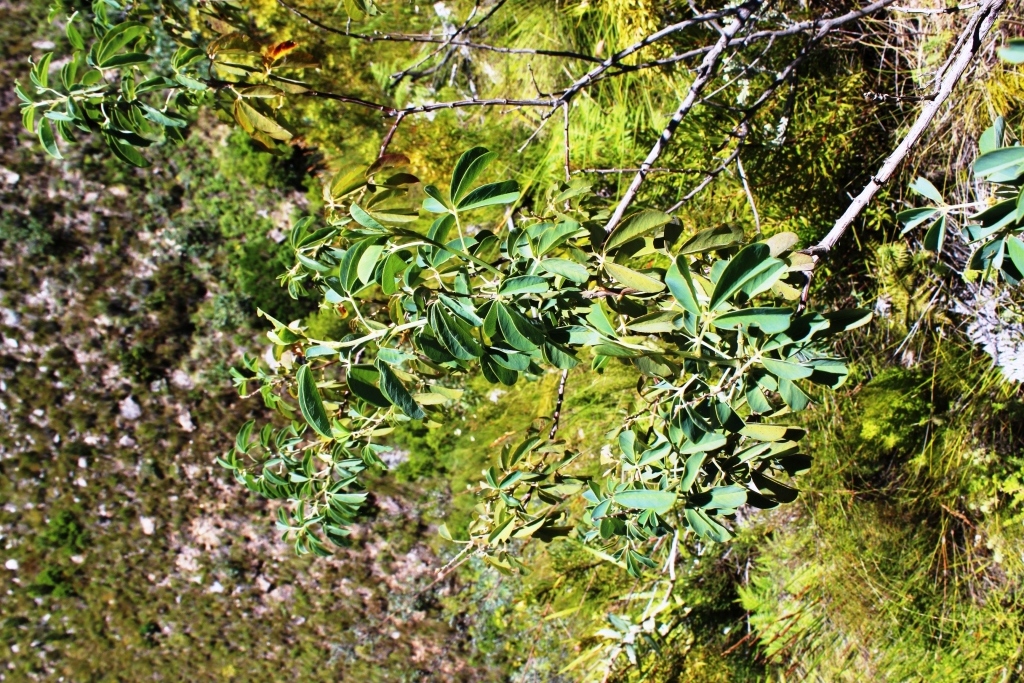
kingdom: Plantae
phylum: Tracheophyta
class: Magnoliopsida
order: Fabales
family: Fabaceae
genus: Hypocalyptus
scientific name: Hypocalyptus sophoroides
